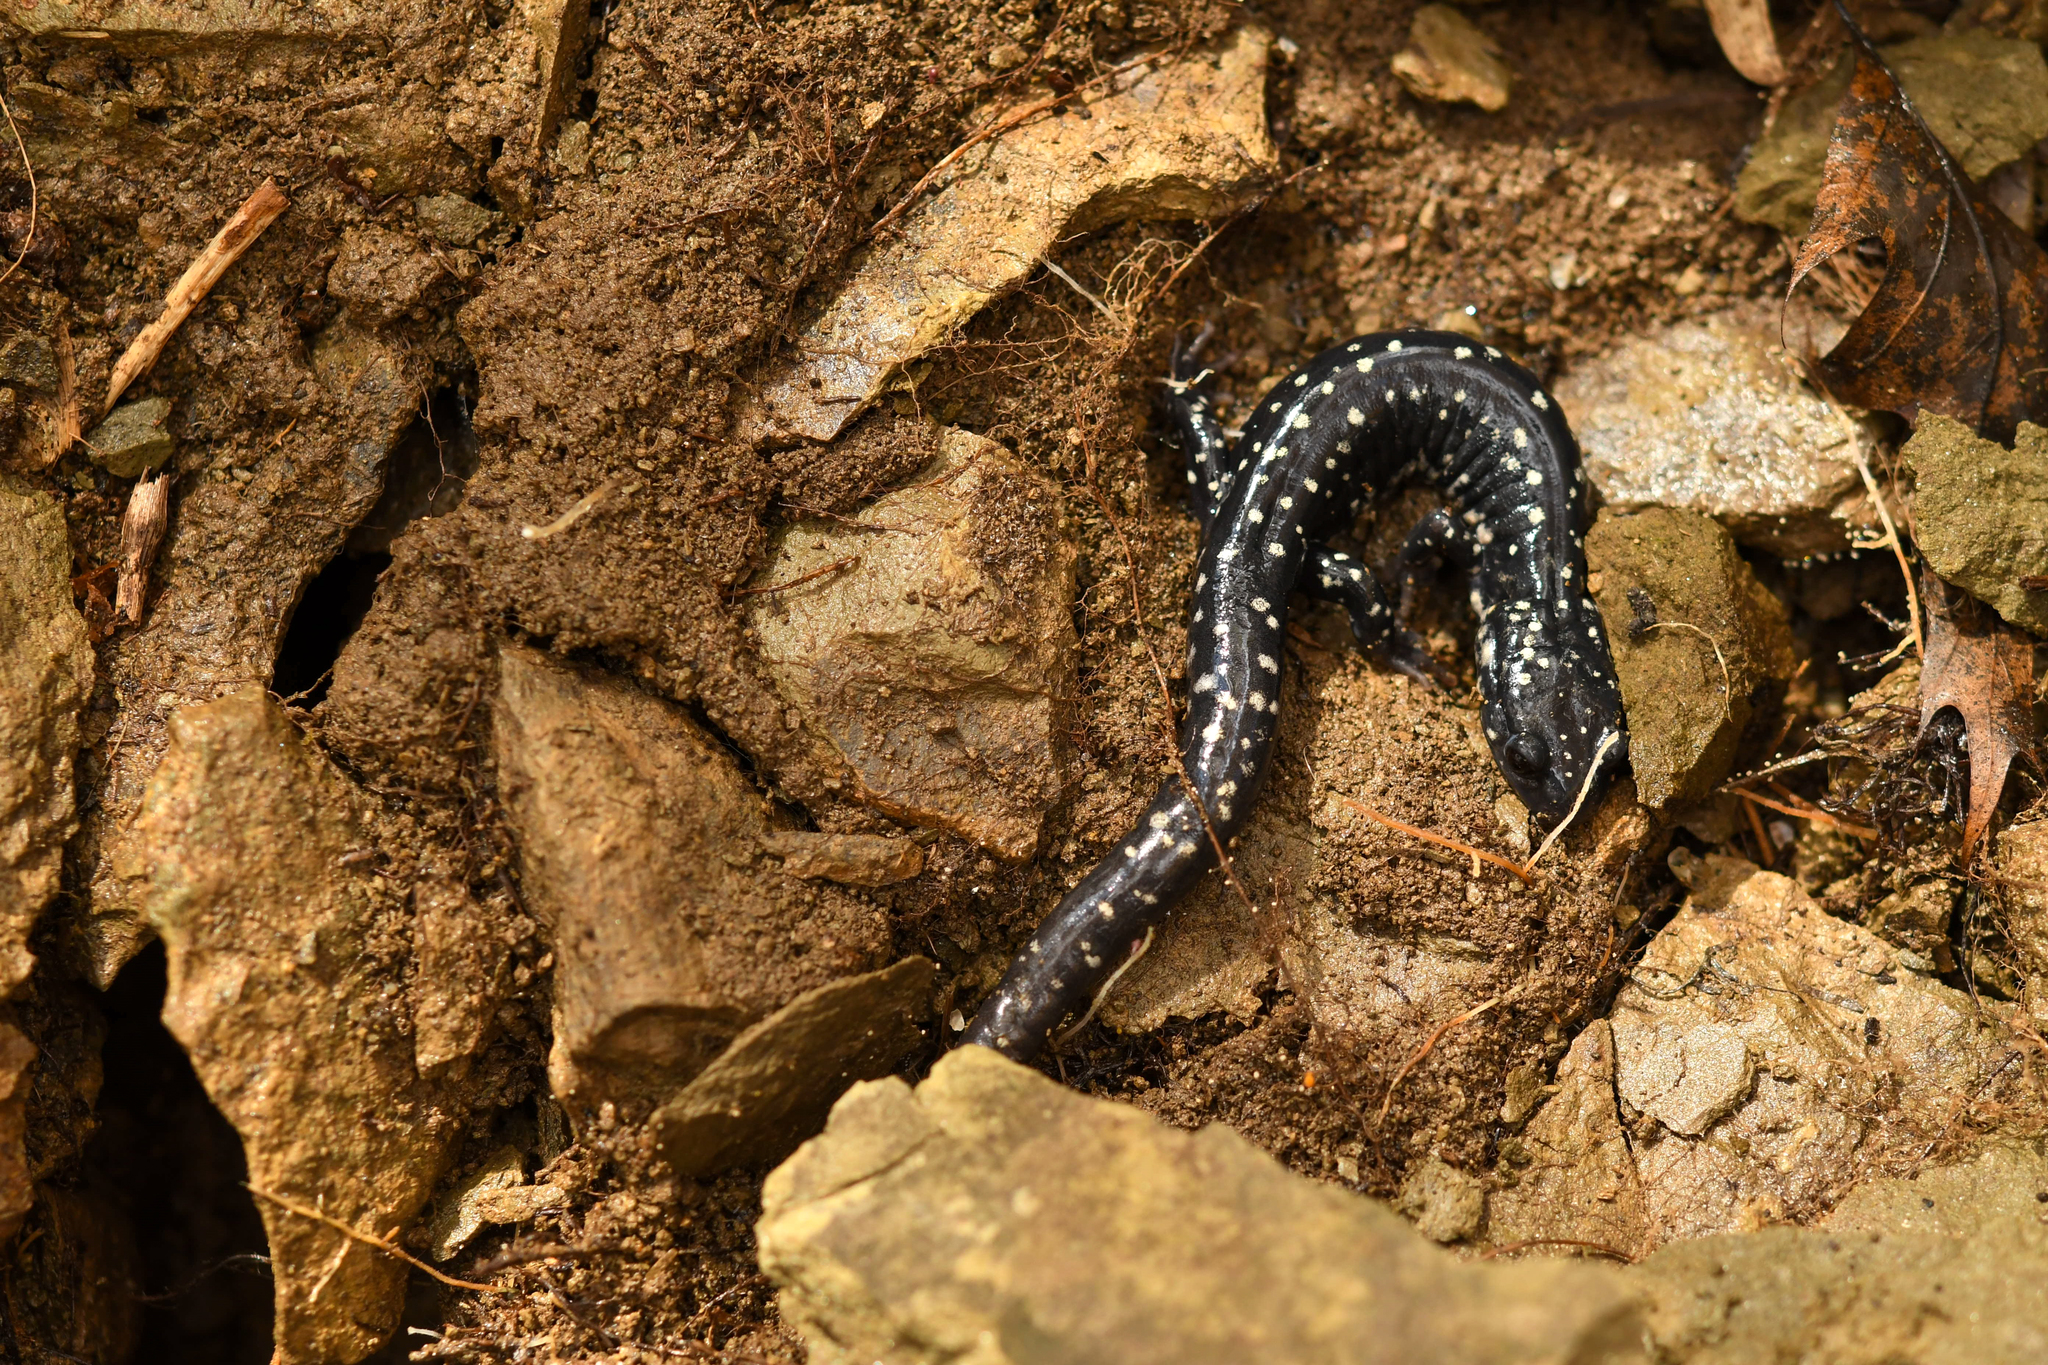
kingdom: Animalia
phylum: Chordata
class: Amphibia
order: Caudata
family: Plethodontidae
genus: Plethodon
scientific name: Plethodon glutinosus
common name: Northern slimy salamander
